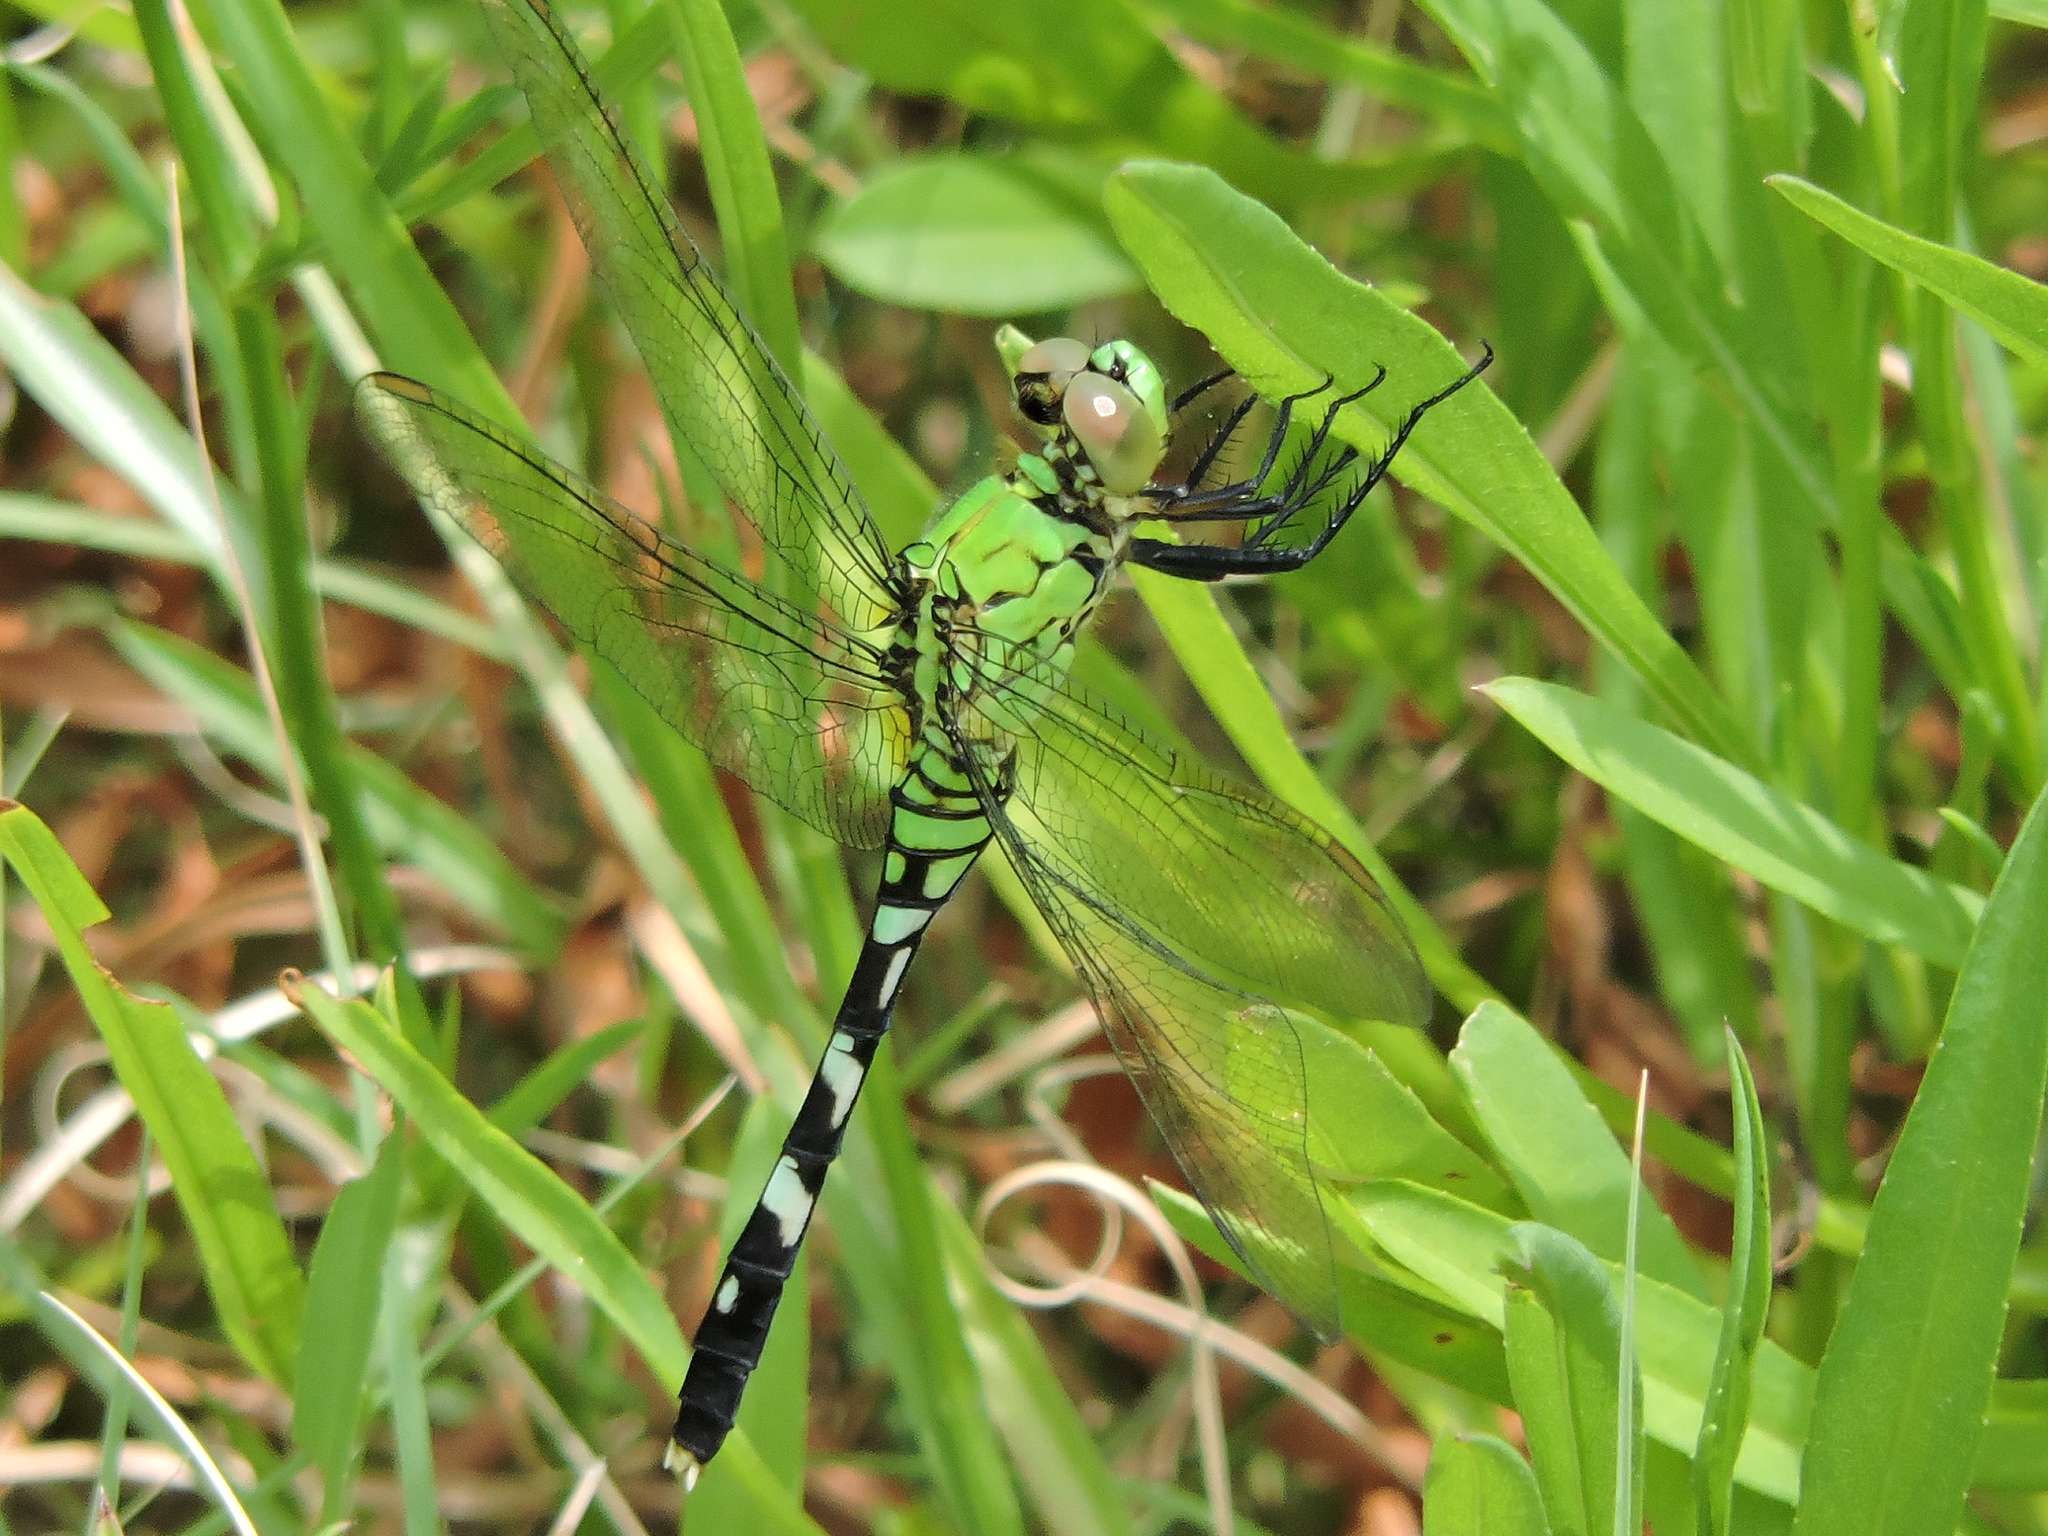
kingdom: Animalia
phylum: Arthropoda
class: Insecta
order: Odonata
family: Libellulidae
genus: Erythemis
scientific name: Erythemis simplicicollis
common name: Eastern pondhawk
